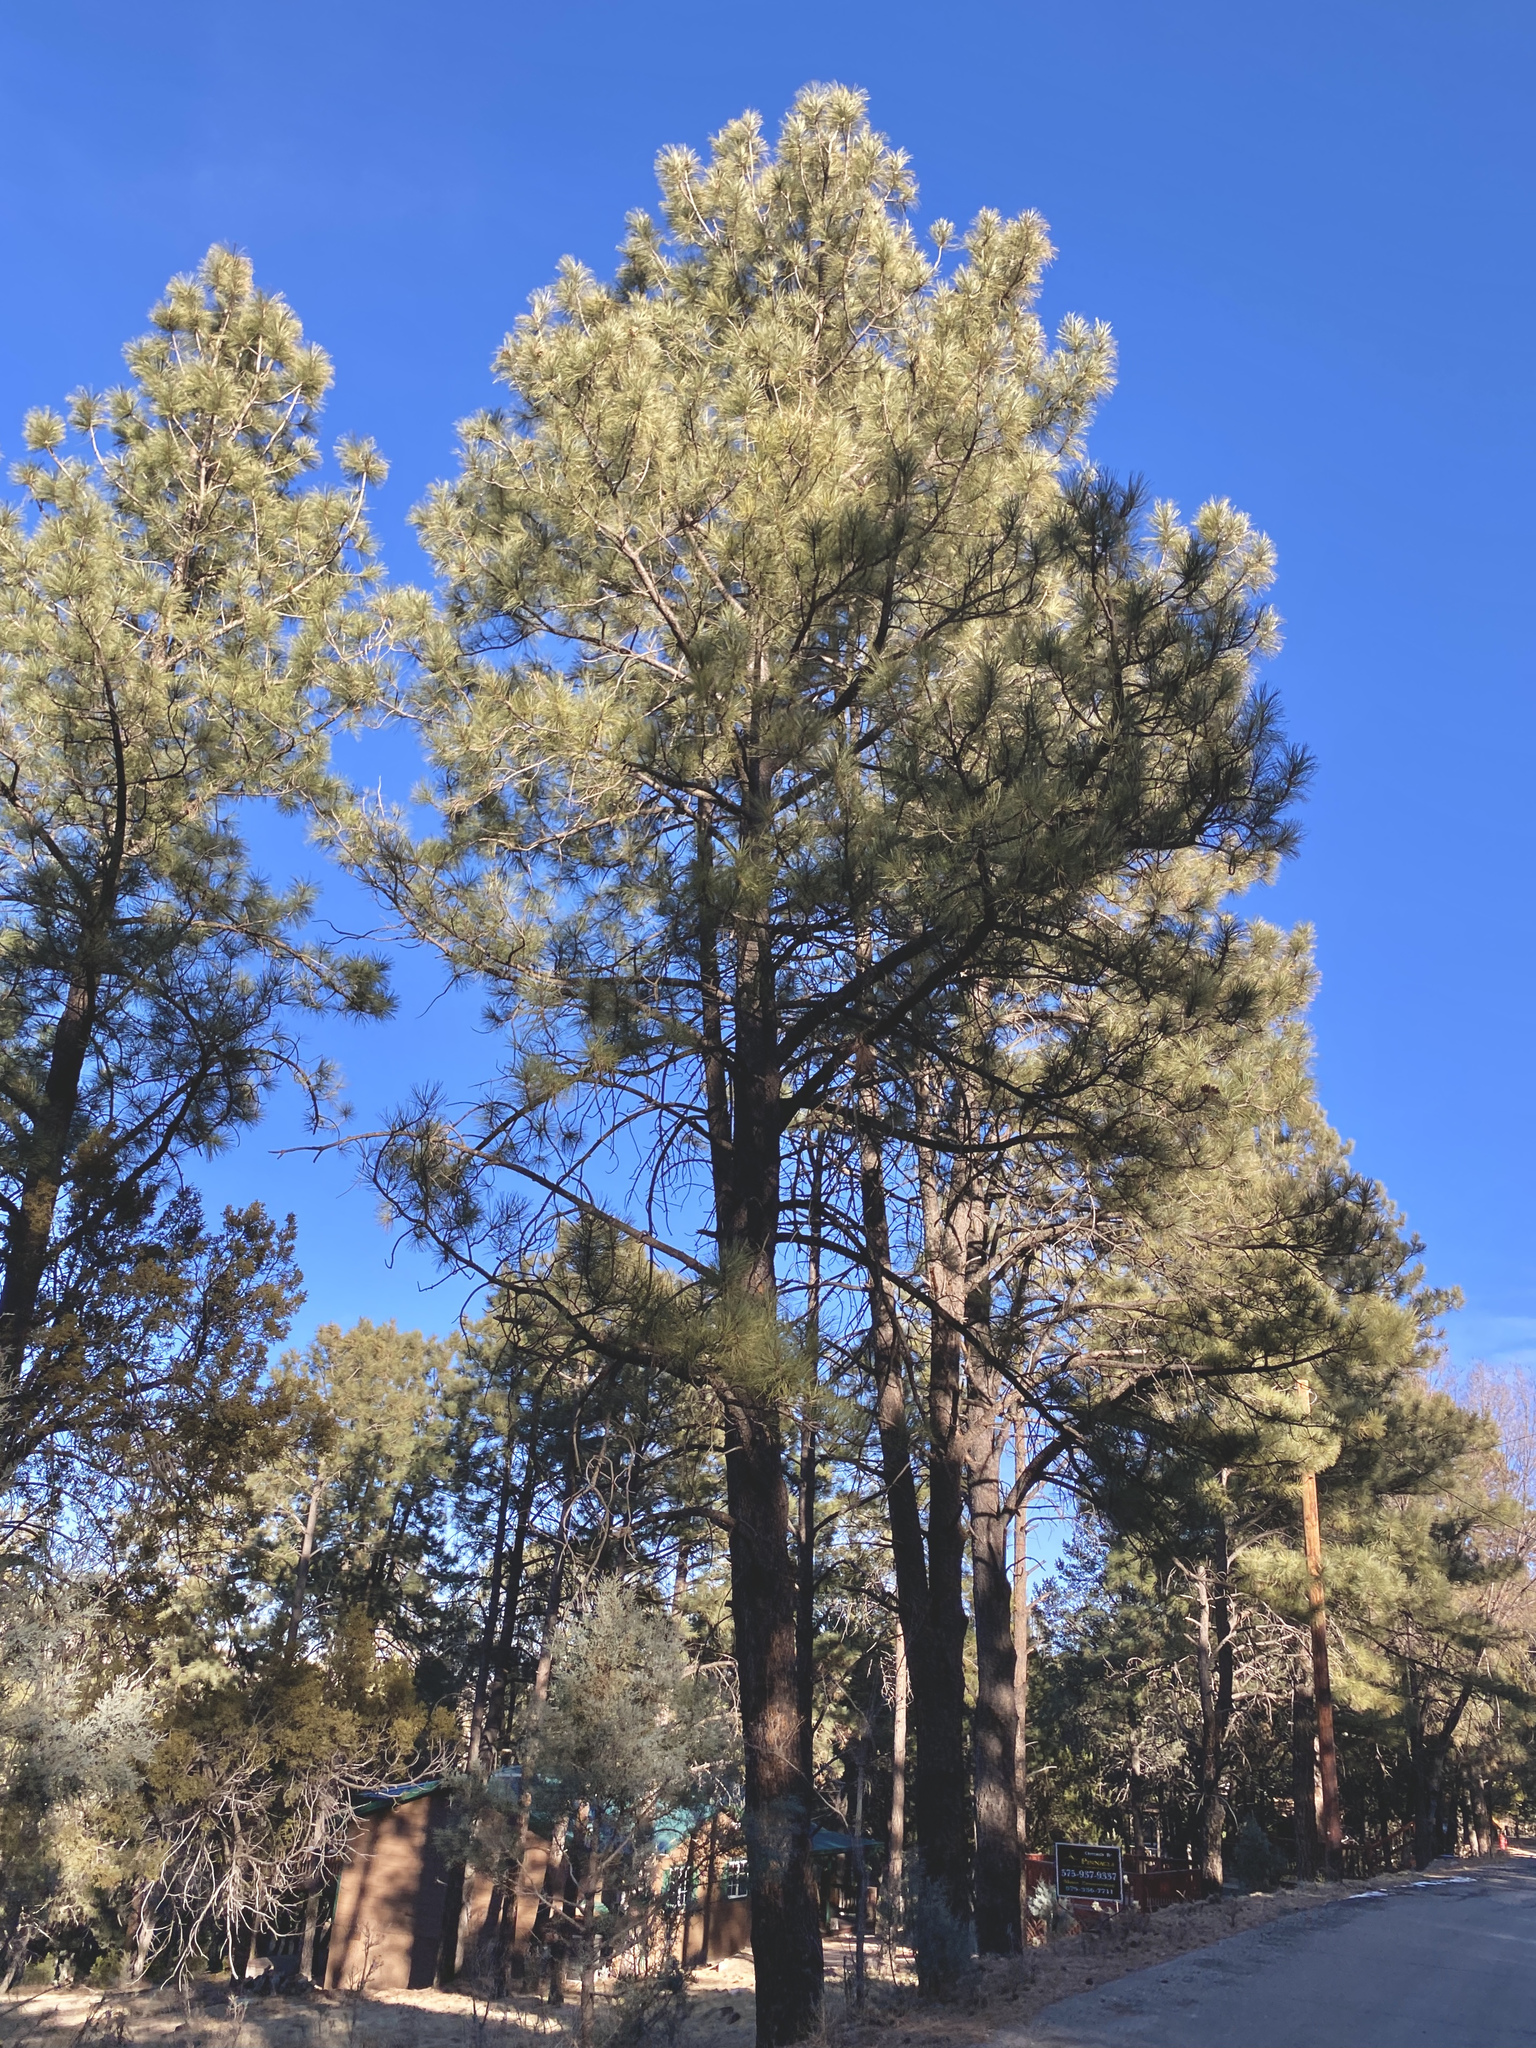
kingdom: Plantae
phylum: Tracheophyta
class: Pinopsida
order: Pinales
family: Pinaceae
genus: Pinus
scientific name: Pinus ponderosa
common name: Western yellow-pine
